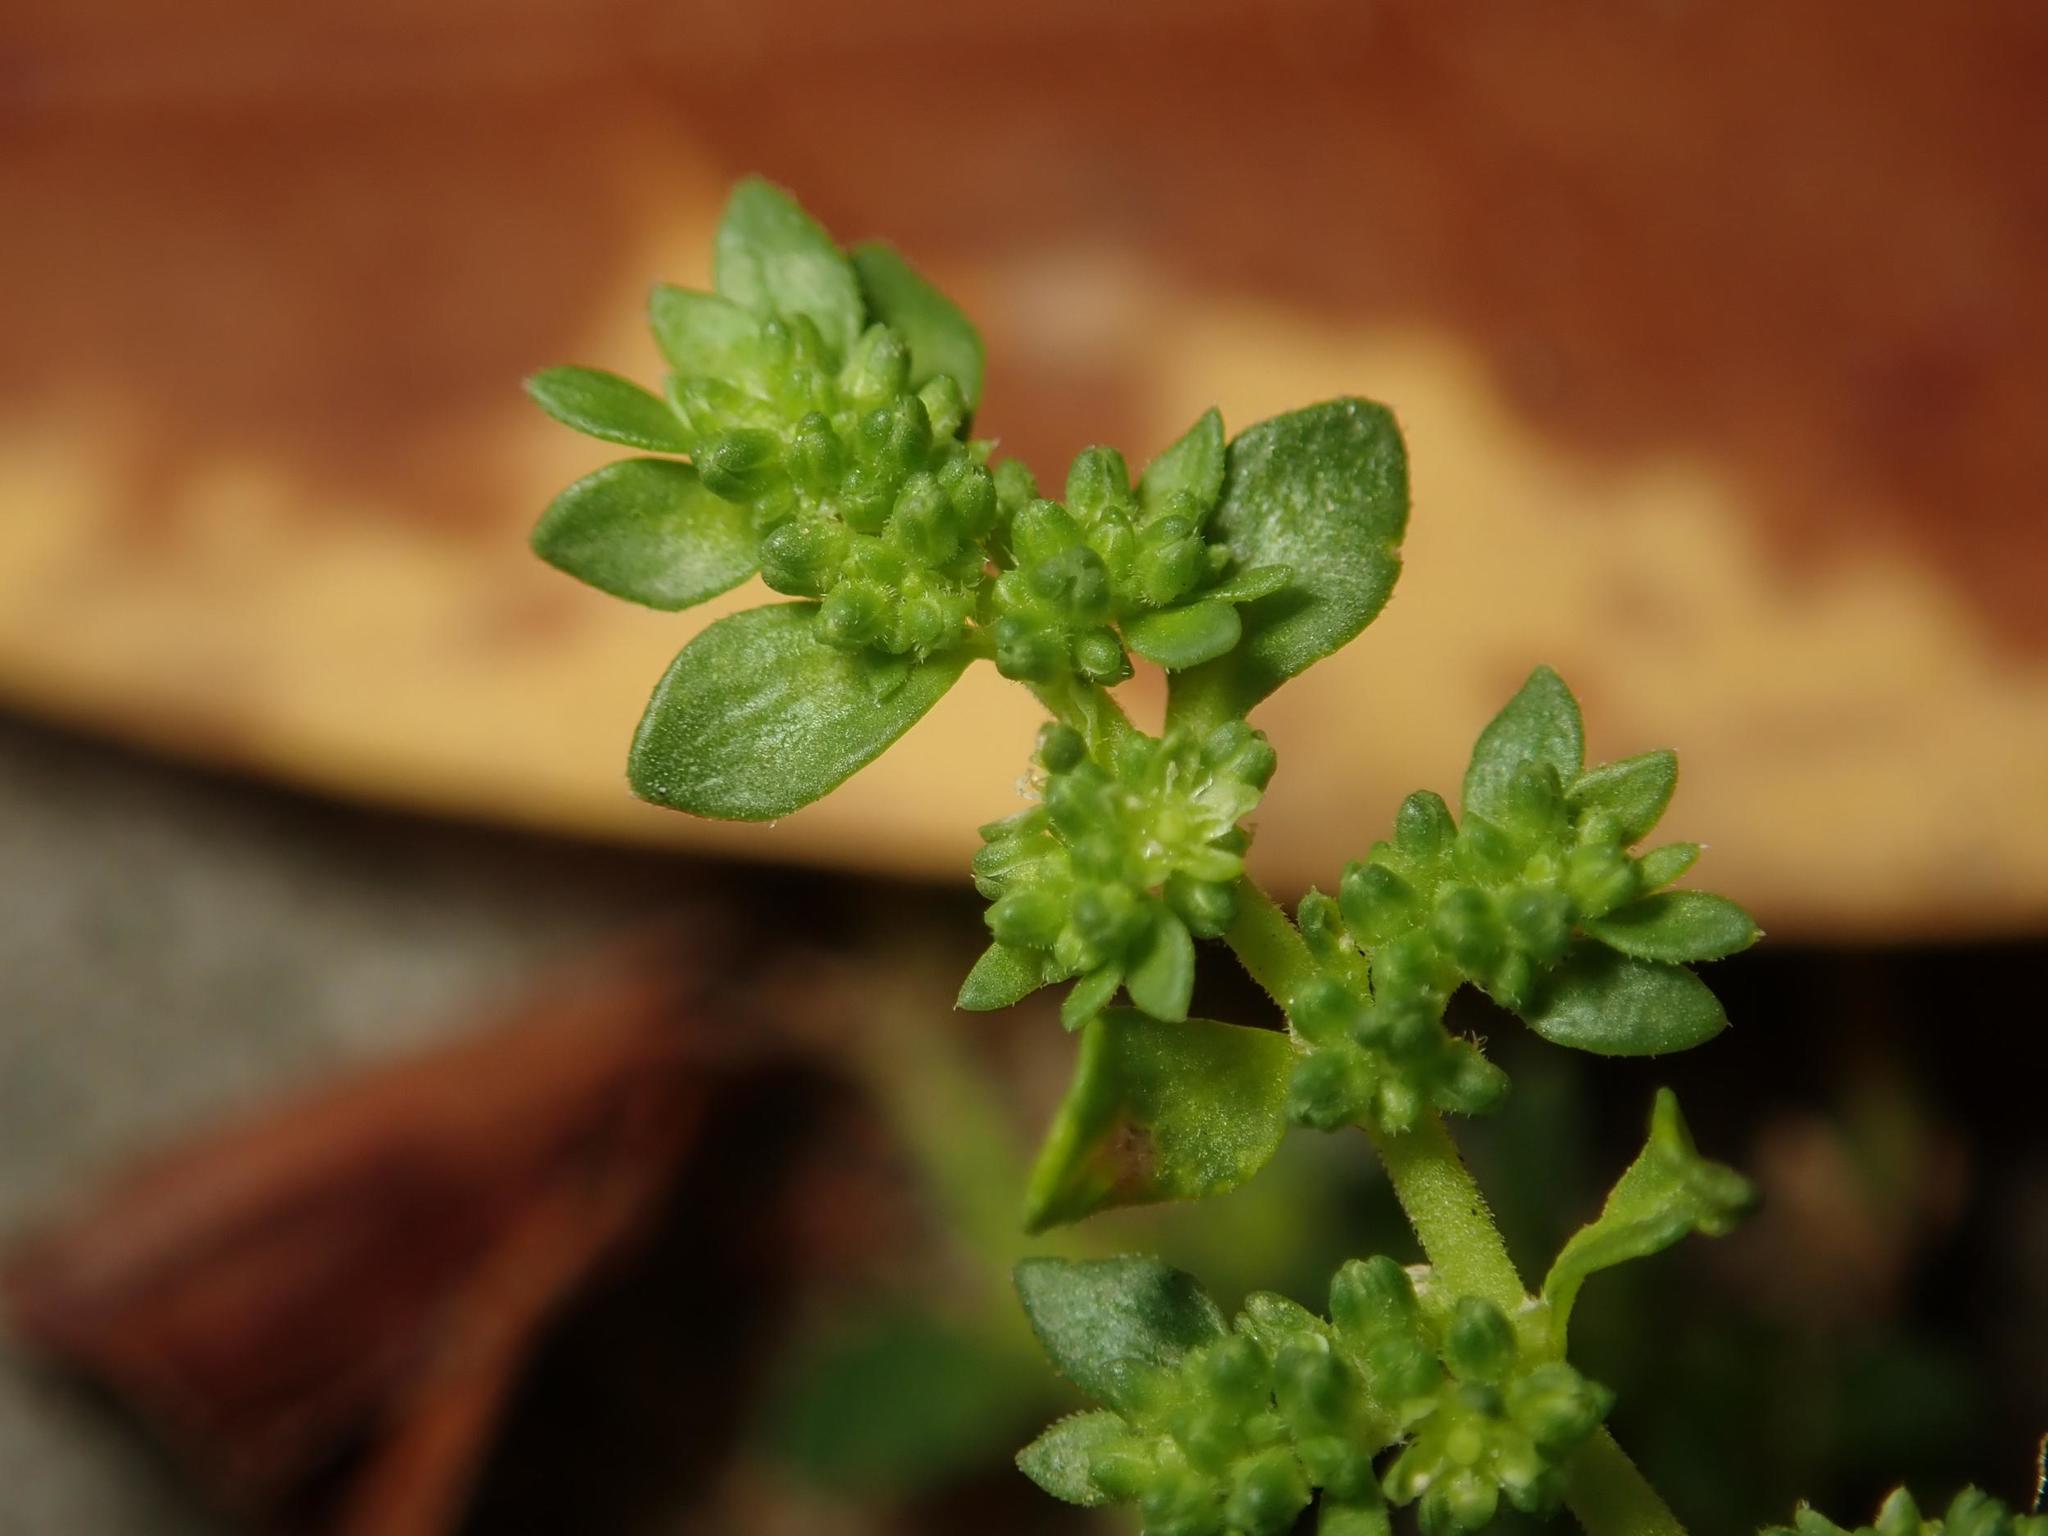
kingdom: Plantae
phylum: Tracheophyta
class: Magnoliopsida
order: Caryophyllales
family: Caryophyllaceae
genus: Herniaria
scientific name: Herniaria glabra
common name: Smooth rupturewort
